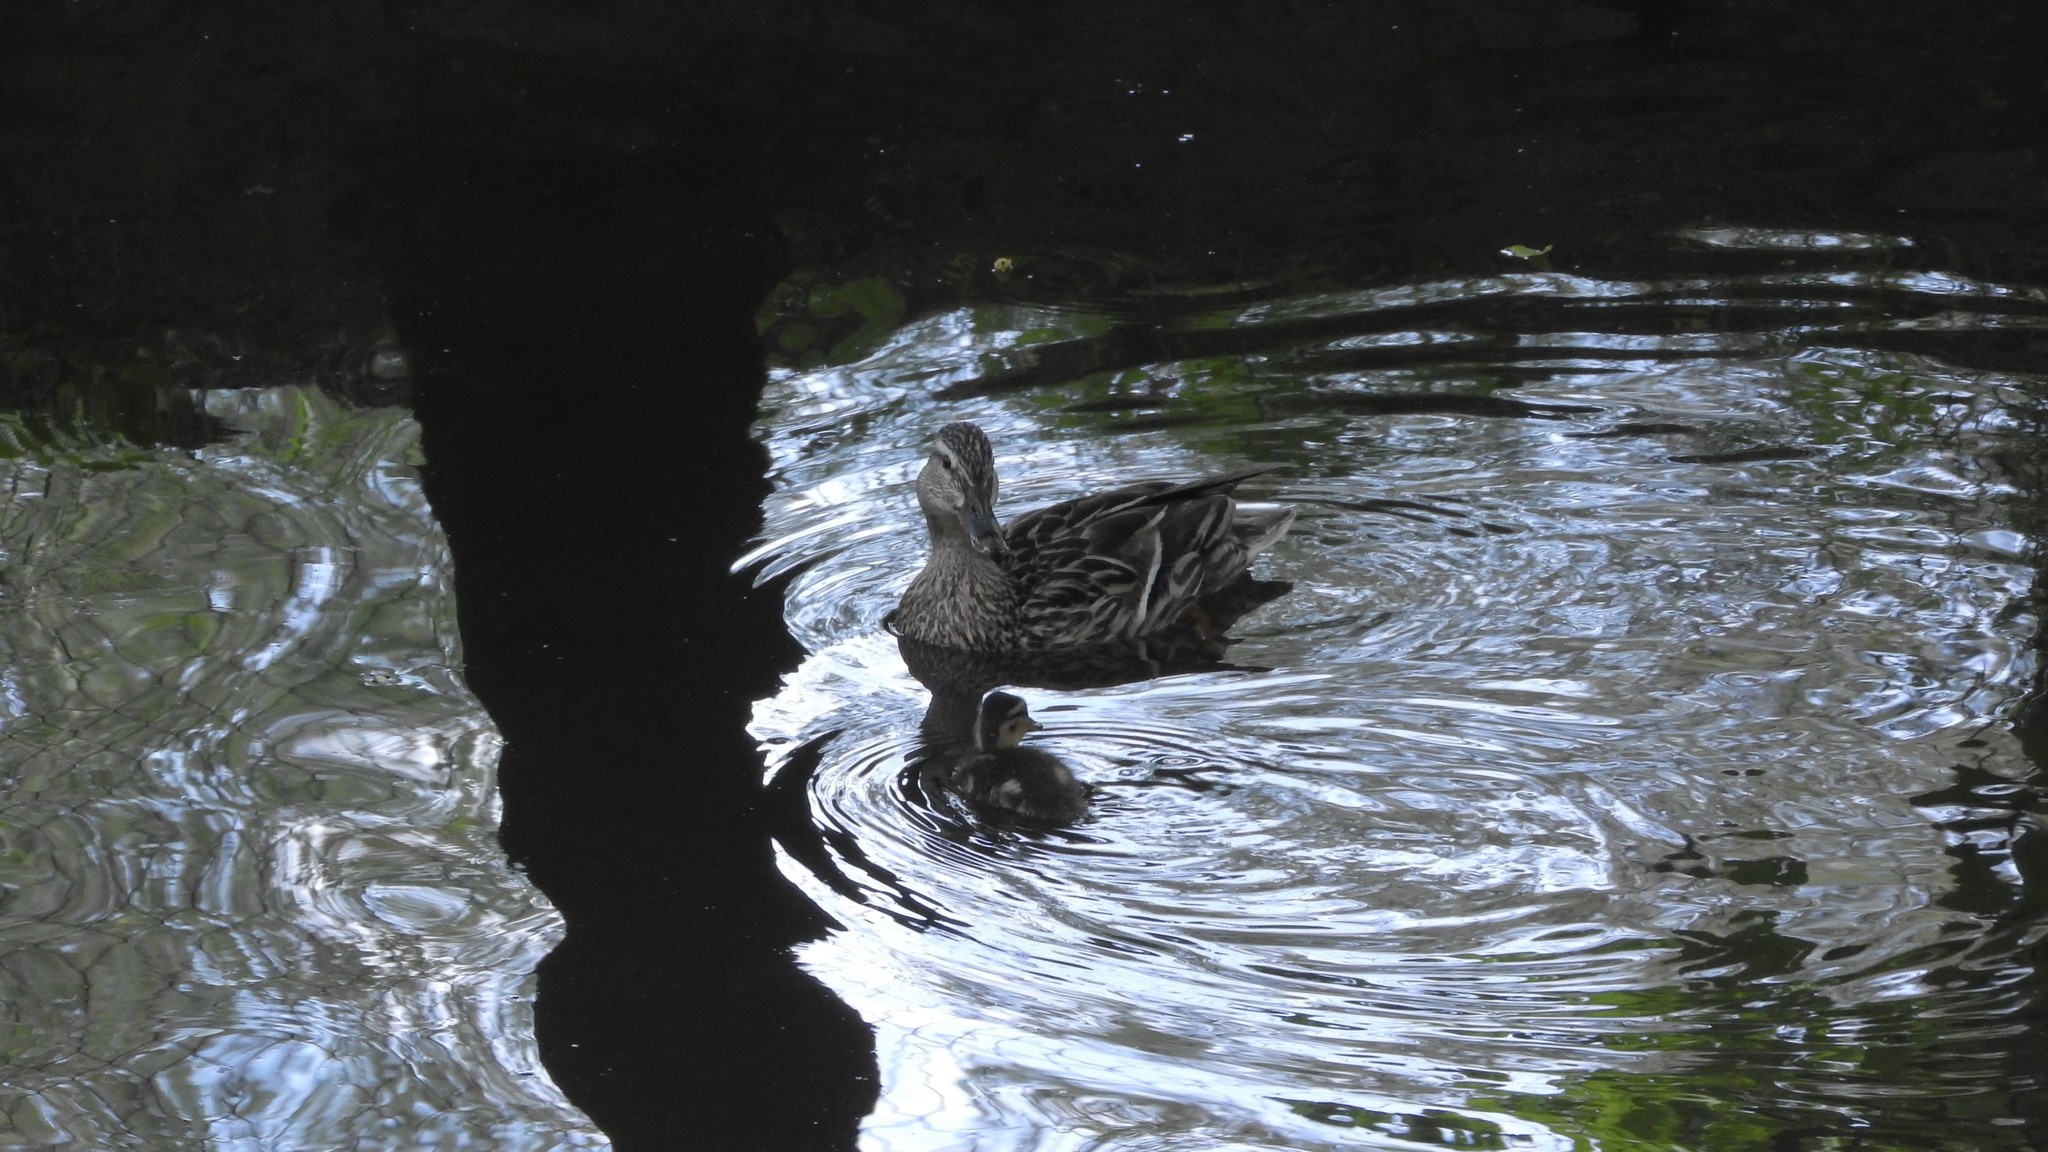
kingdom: Animalia
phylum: Chordata
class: Aves
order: Anseriformes
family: Anatidae
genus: Anas
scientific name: Anas platyrhynchos
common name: Mallard
